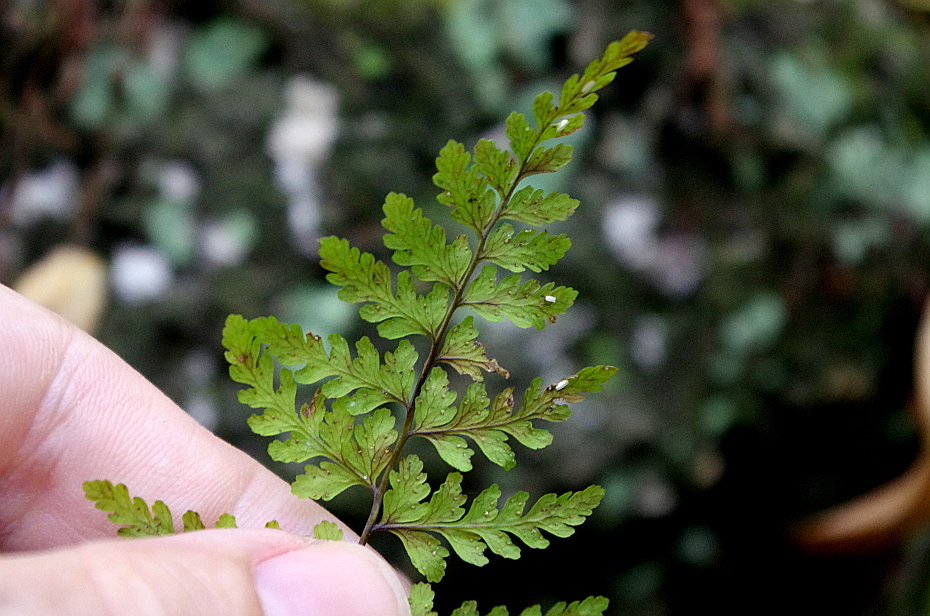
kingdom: Plantae
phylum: Tracheophyta
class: Polypodiopsida
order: Polypodiales
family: Cystopteridaceae
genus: Cystopteris
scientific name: Cystopteris fragilis
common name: Brittle bladder fern
